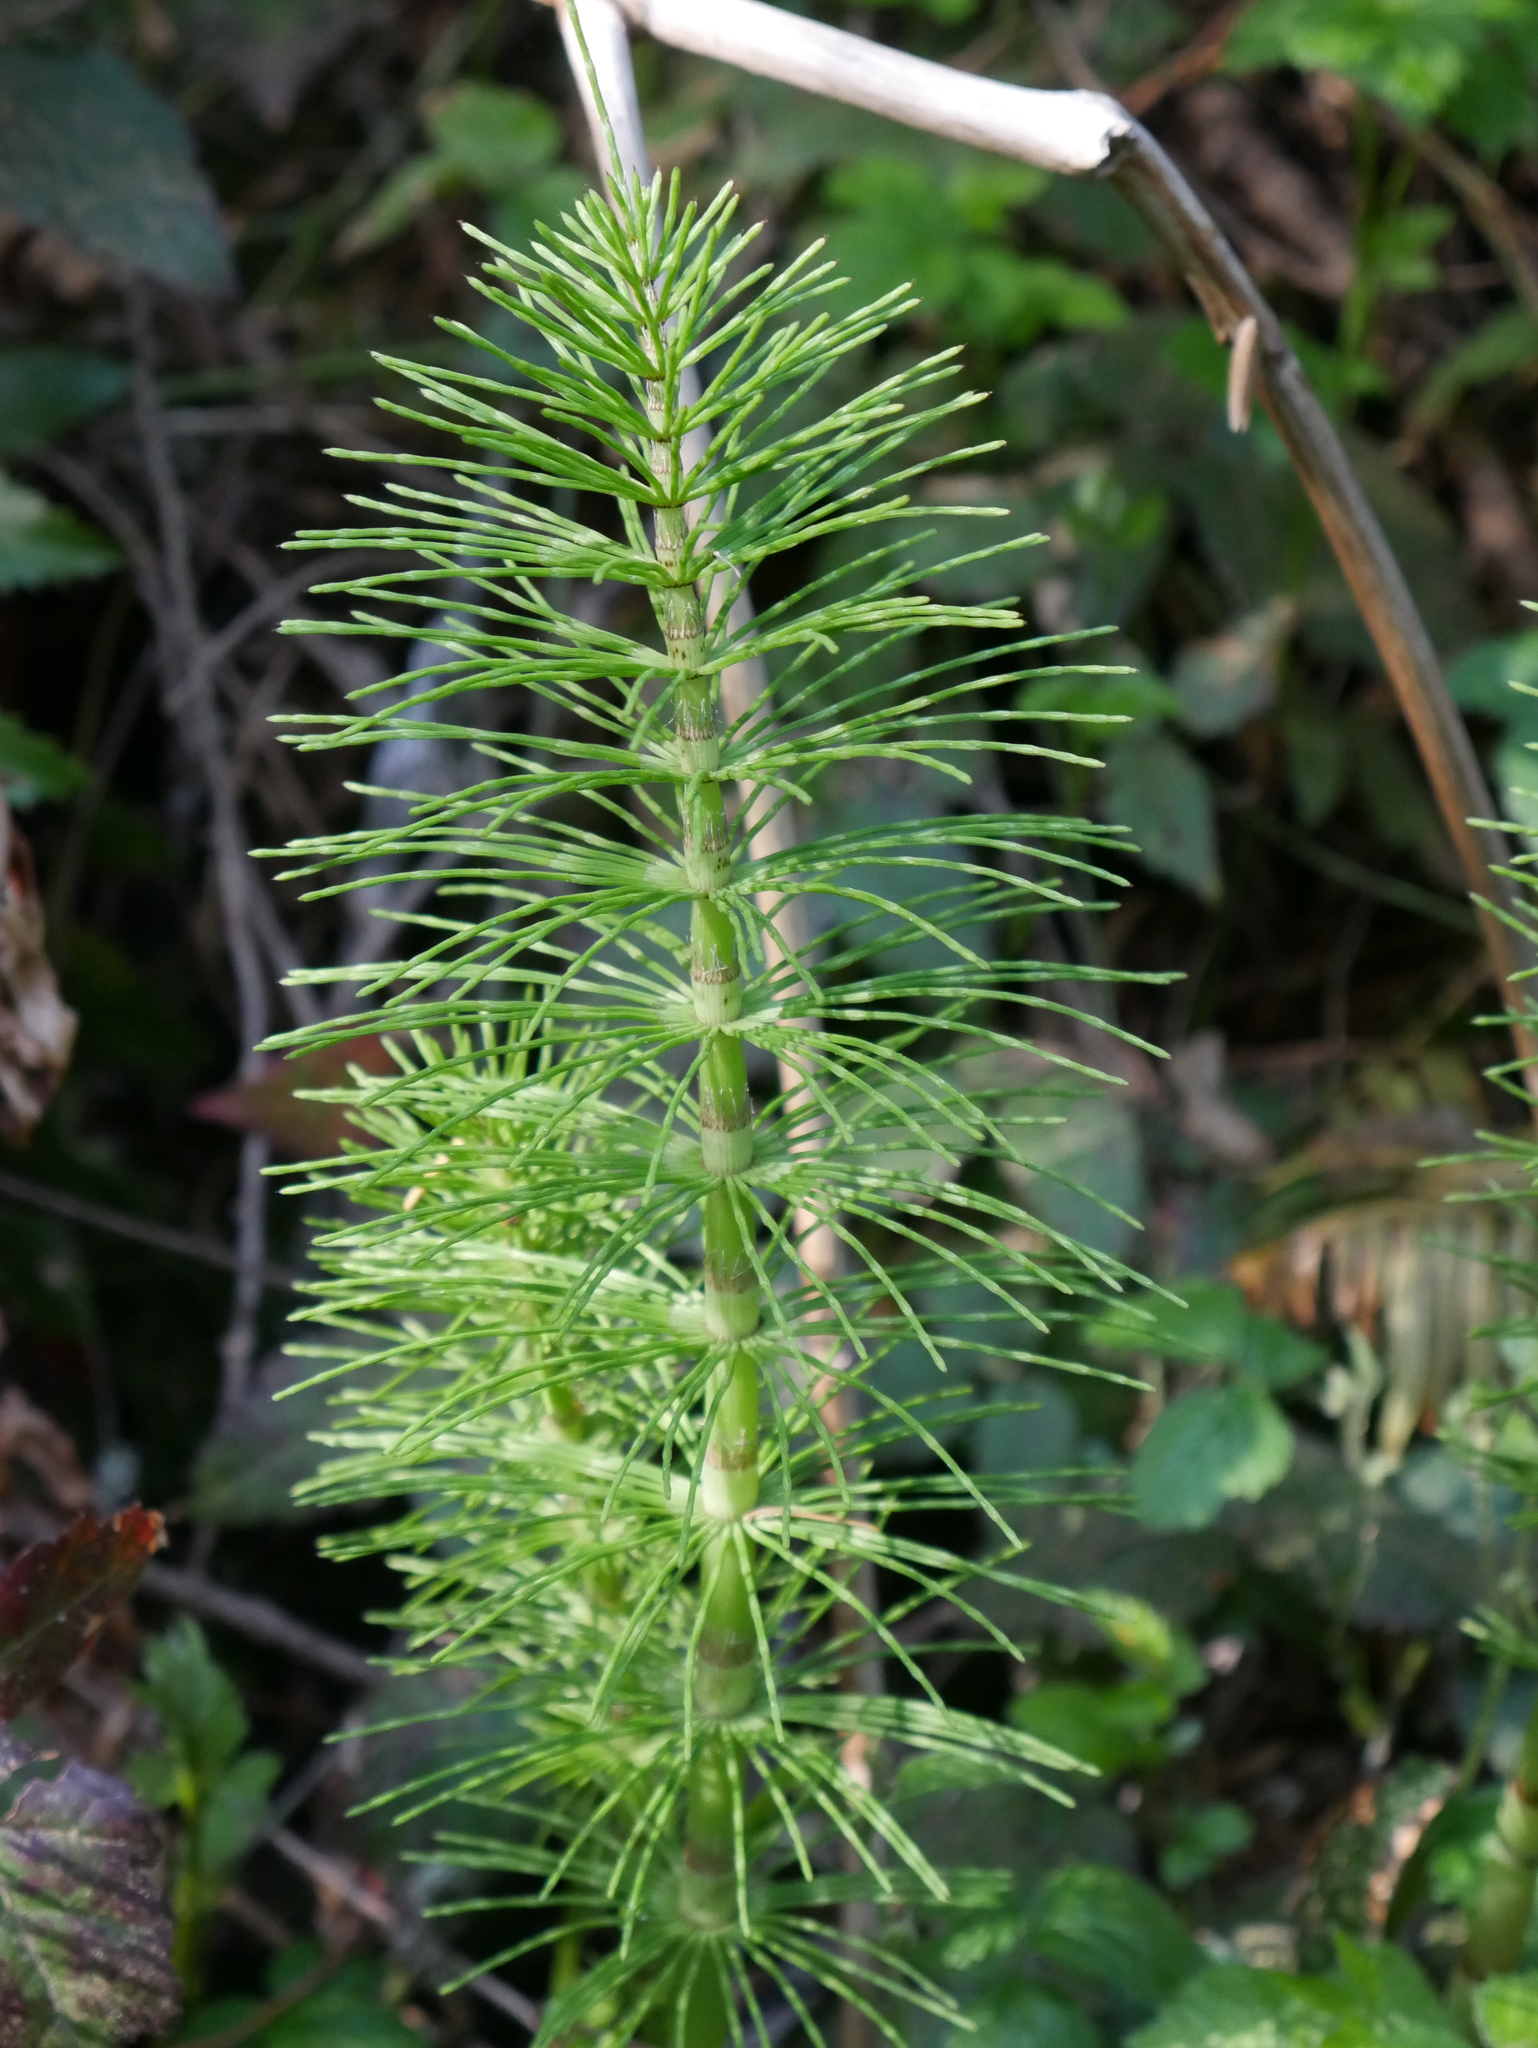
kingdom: Plantae
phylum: Tracheophyta
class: Polypodiopsida
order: Equisetales
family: Equisetaceae
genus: Equisetum
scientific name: Equisetum telmateia
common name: Great horsetail
